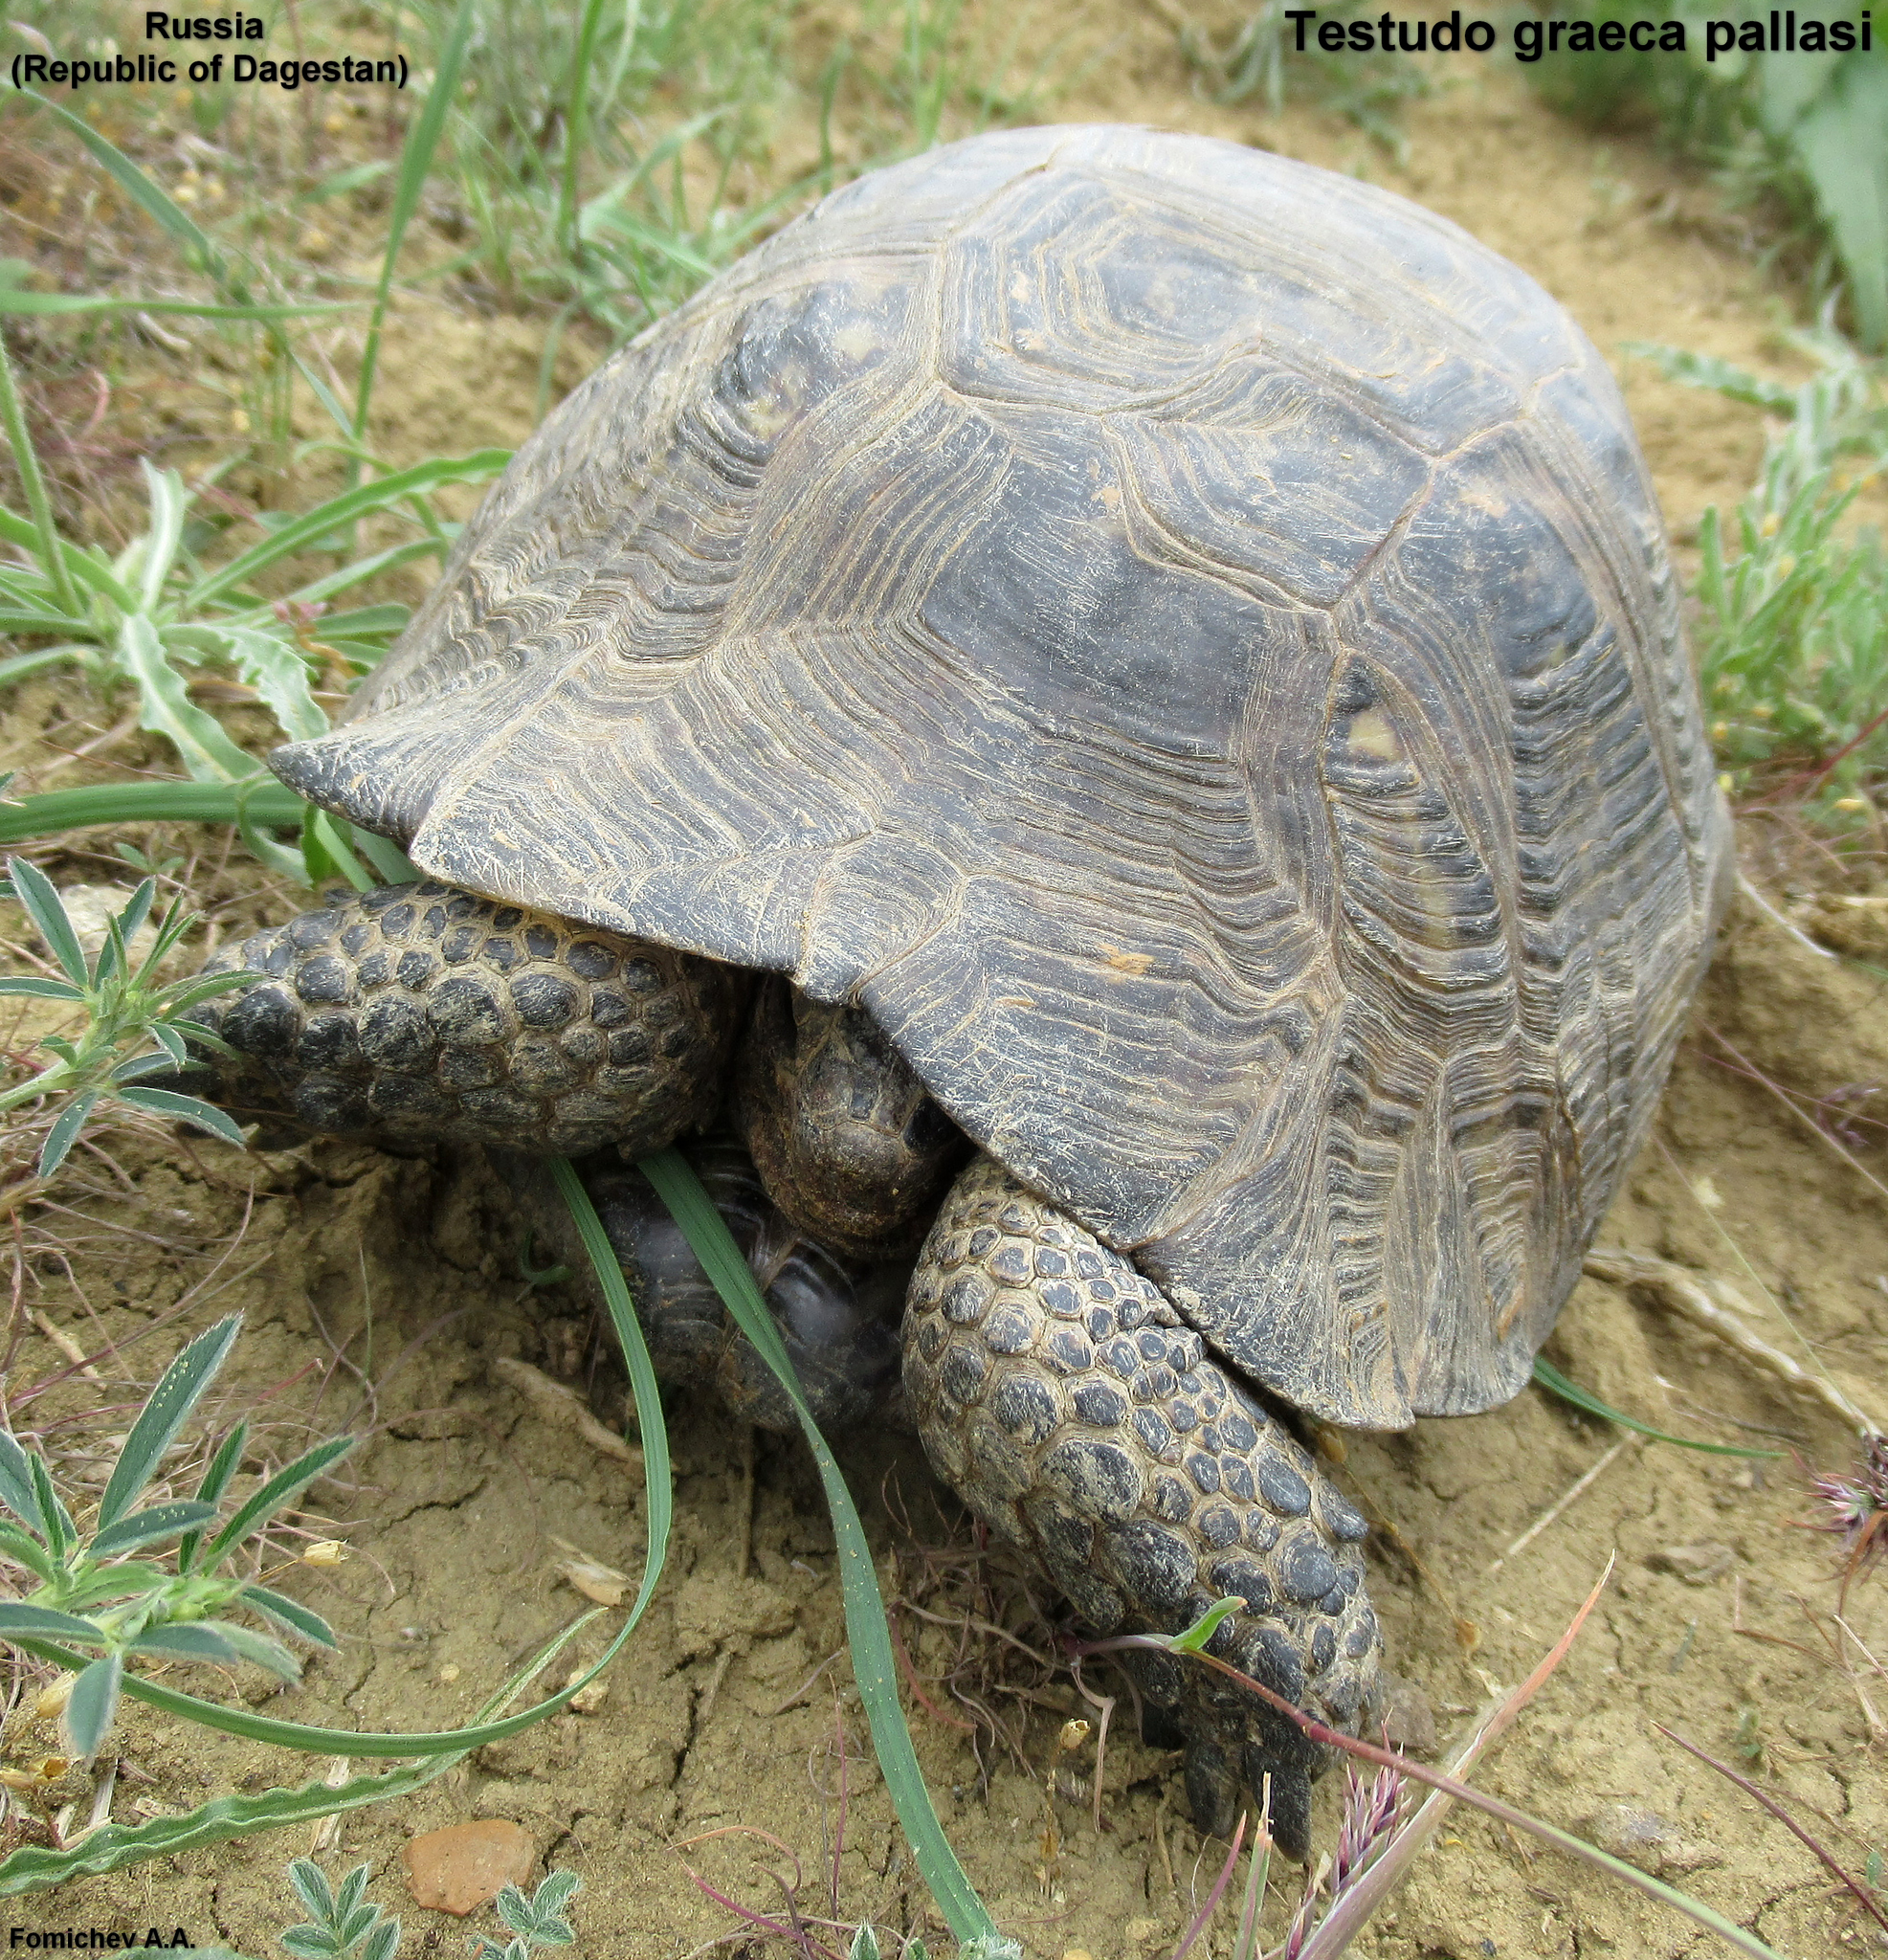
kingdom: Animalia
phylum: Chordata
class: Testudines
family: Testudinidae
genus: Testudo
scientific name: Testudo graeca
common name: Common tortoise
